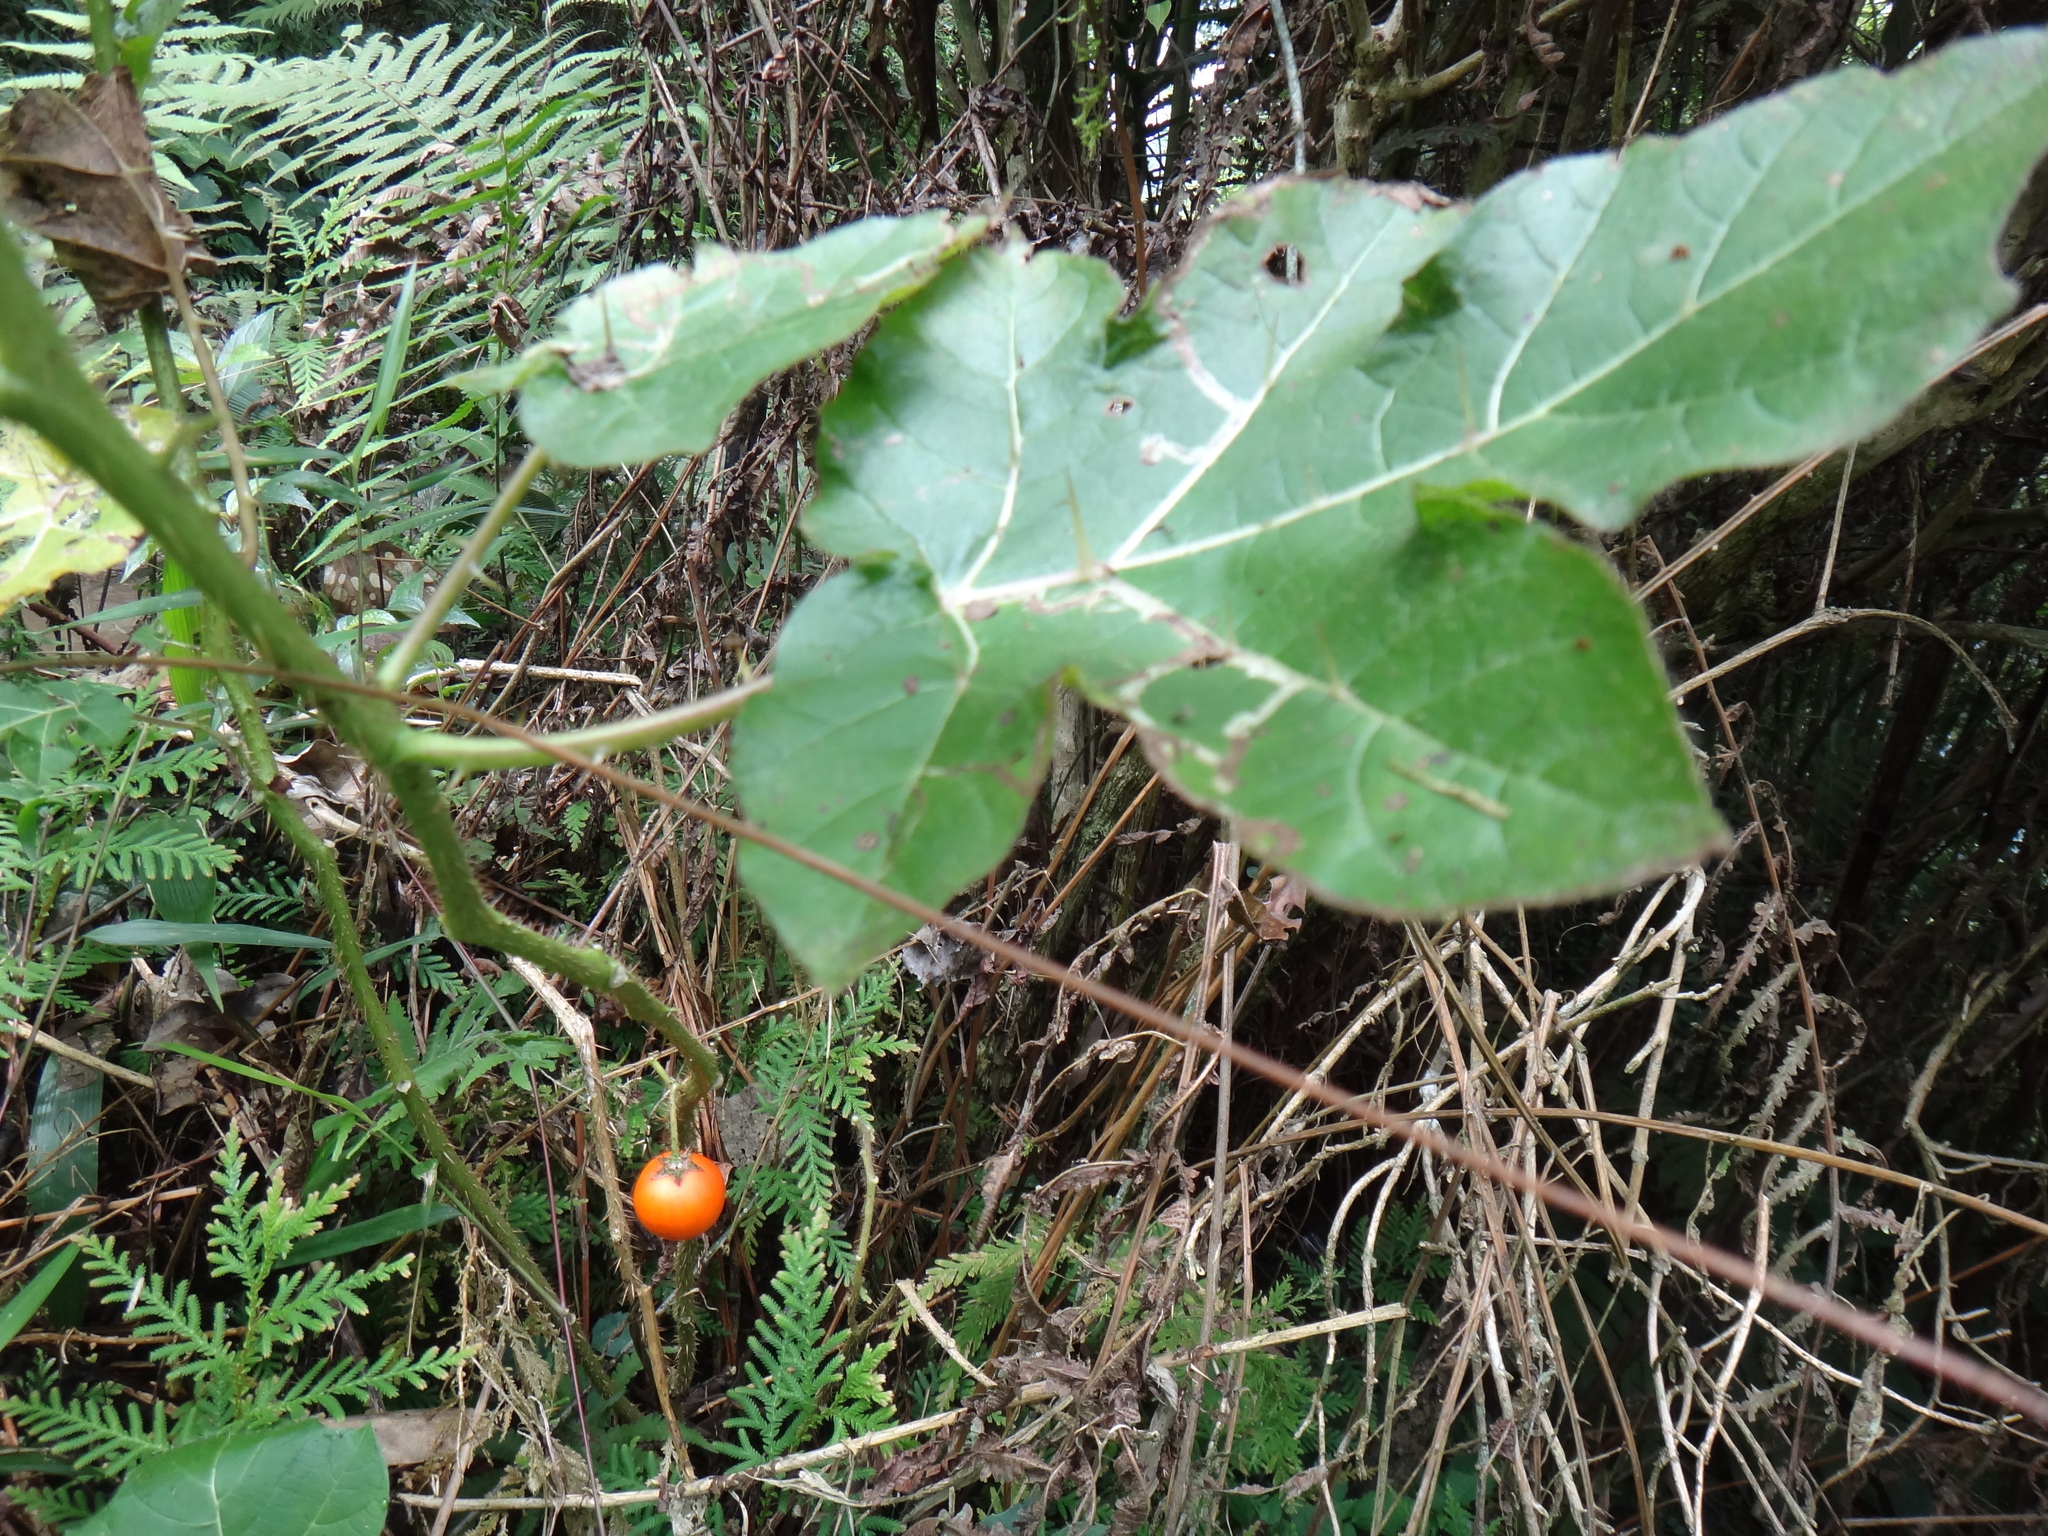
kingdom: Plantae
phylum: Tracheophyta
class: Magnoliopsida
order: Solanales
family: Solanaceae
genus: Solanum
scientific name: Solanum capsicoides
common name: Cockroach berry
